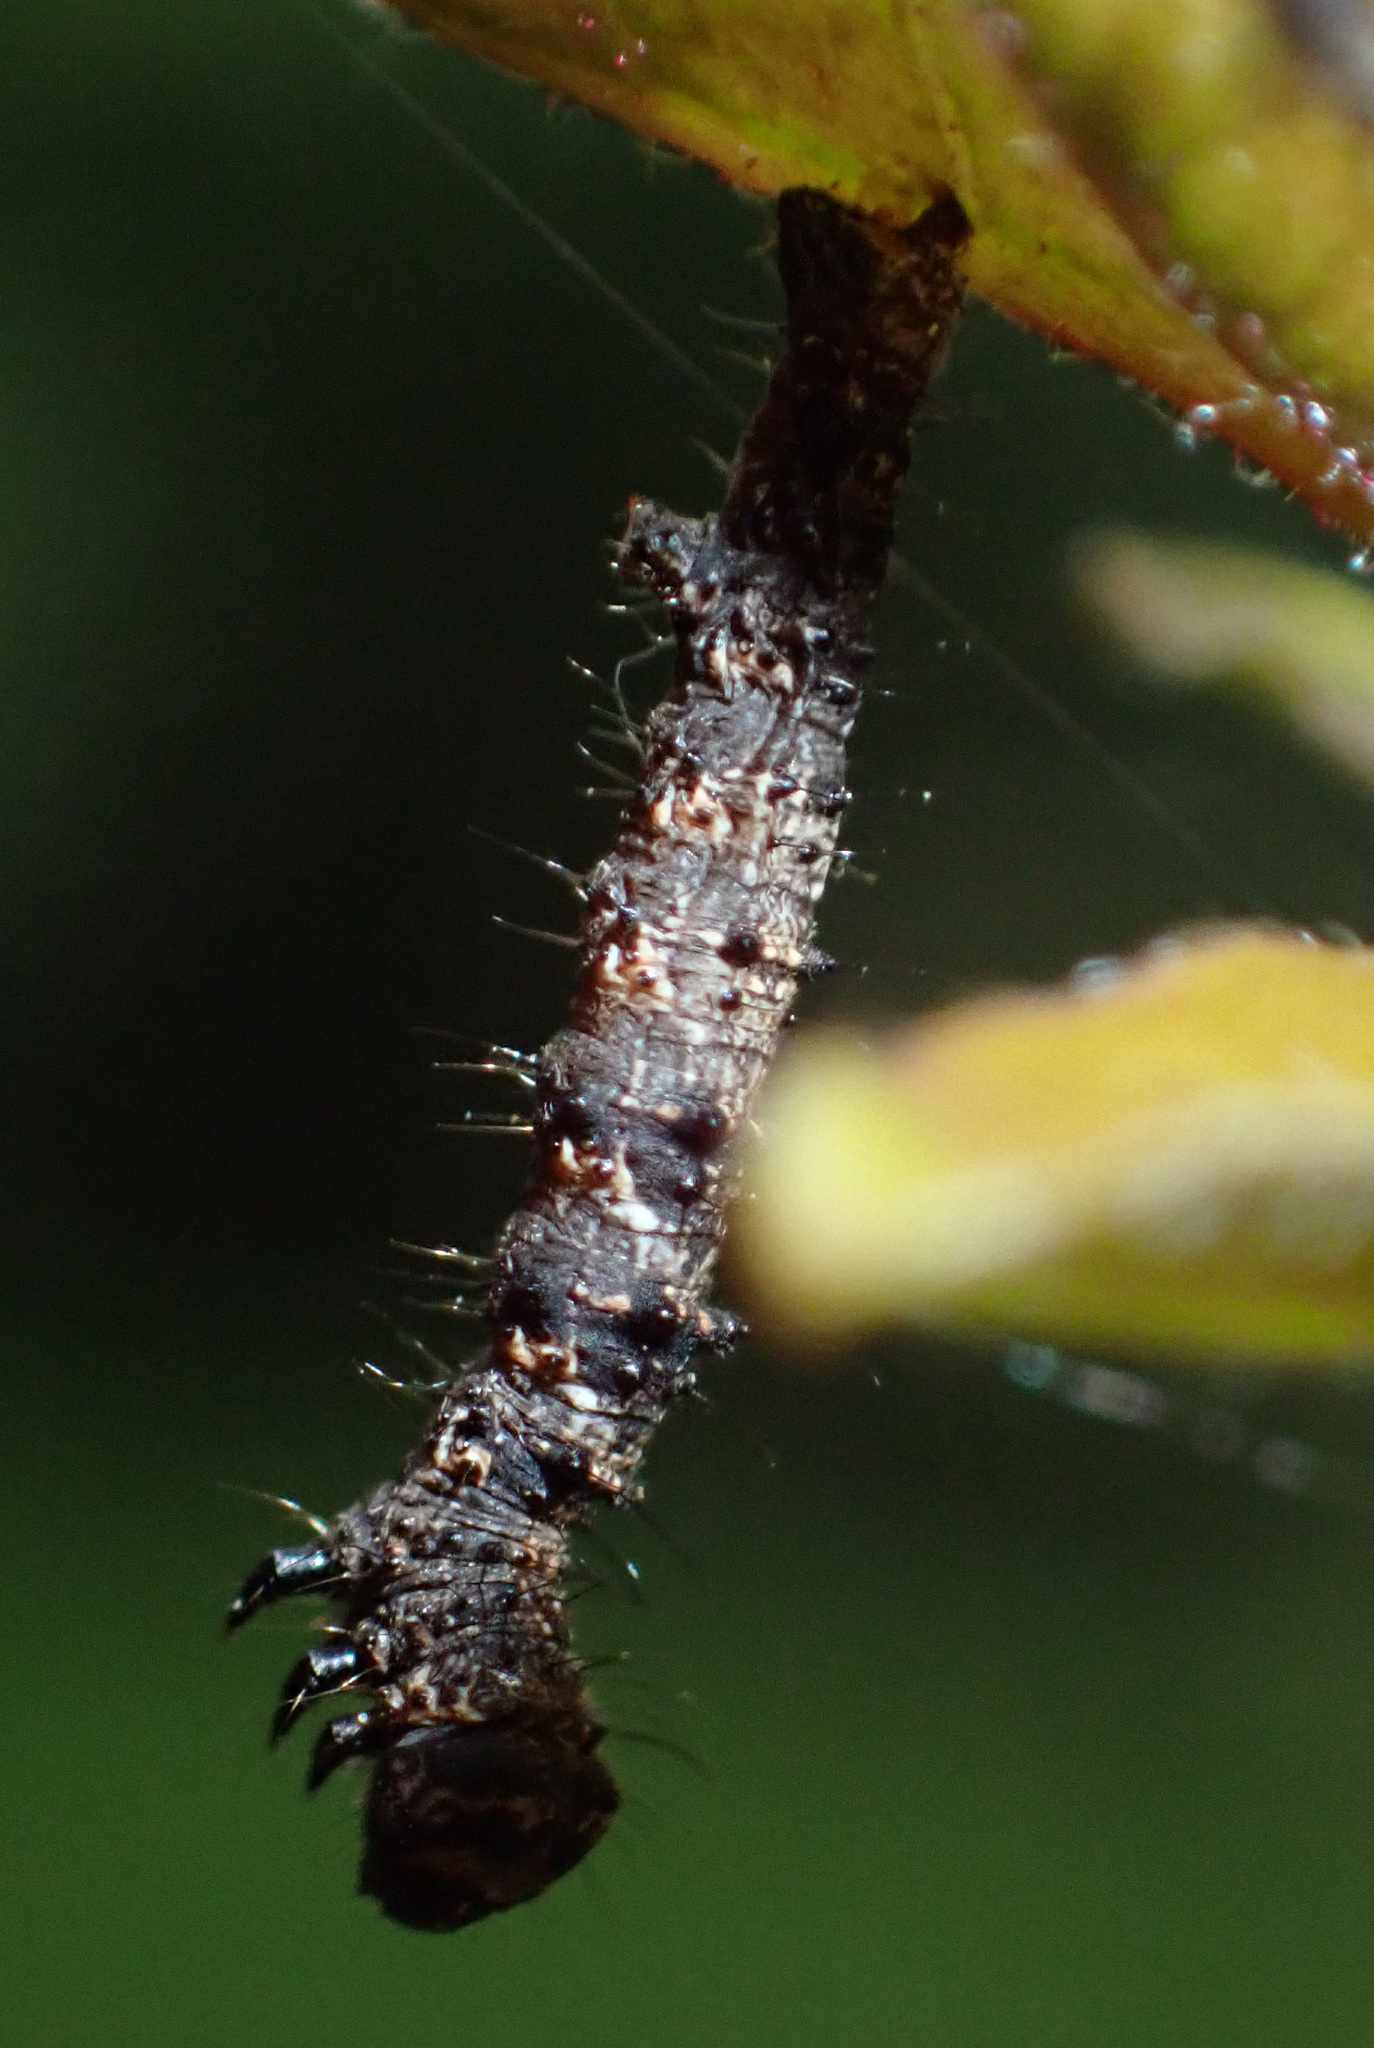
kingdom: Animalia
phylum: Arthropoda
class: Insecta
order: Lepidoptera
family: Geometridae
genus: Phigalia
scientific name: Phigalia pilosaria
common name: Pale brindled beauty
